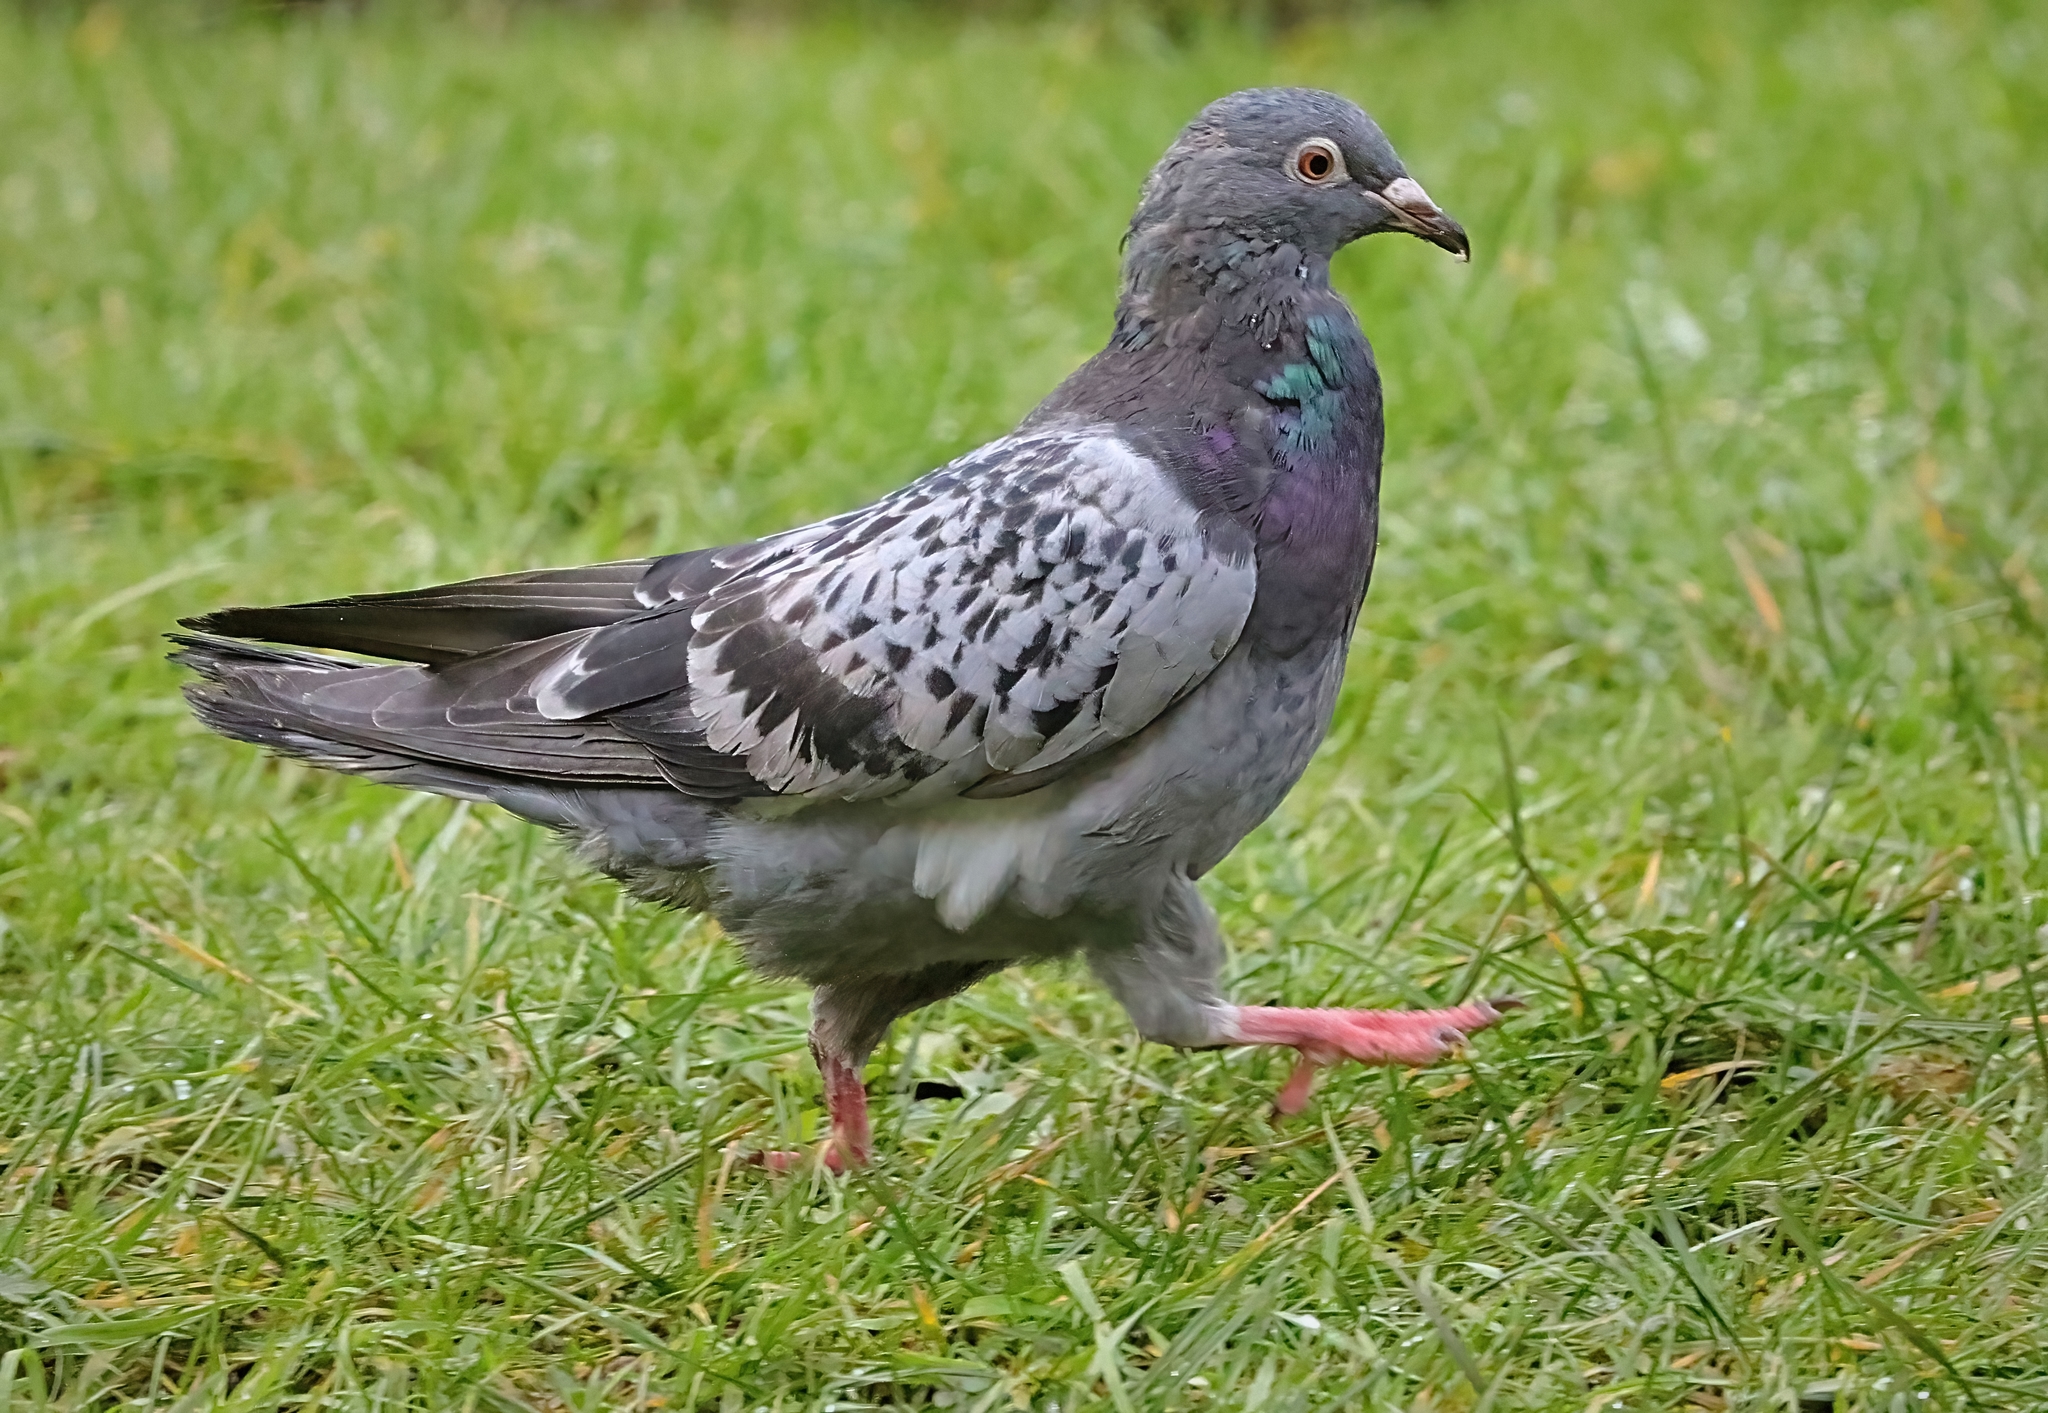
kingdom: Animalia
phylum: Chordata
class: Aves
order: Columbiformes
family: Columbidae
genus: Columba
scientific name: Columba livia
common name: Rock pigeon
